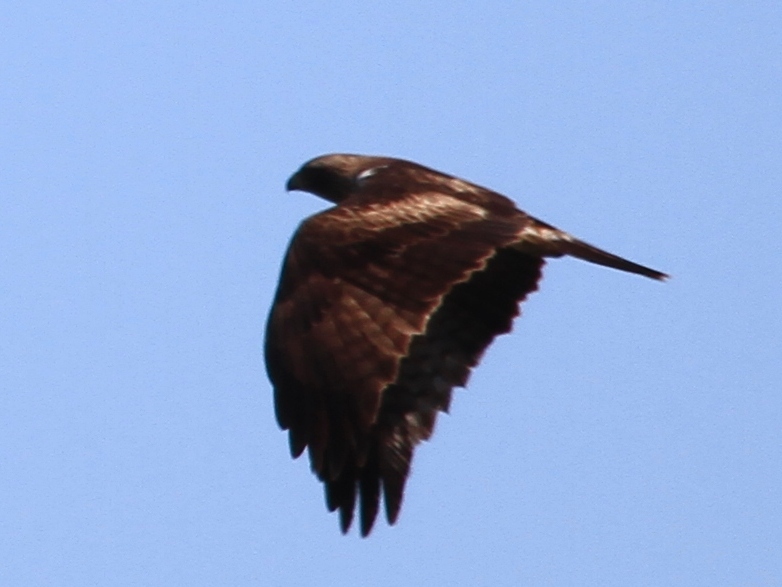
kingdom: Animalia
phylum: Chordata
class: Aves
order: Accipitriformes
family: Accipitridae
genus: Hieraaetus
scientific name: Hieraaetus pennatus
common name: Booted eagle
